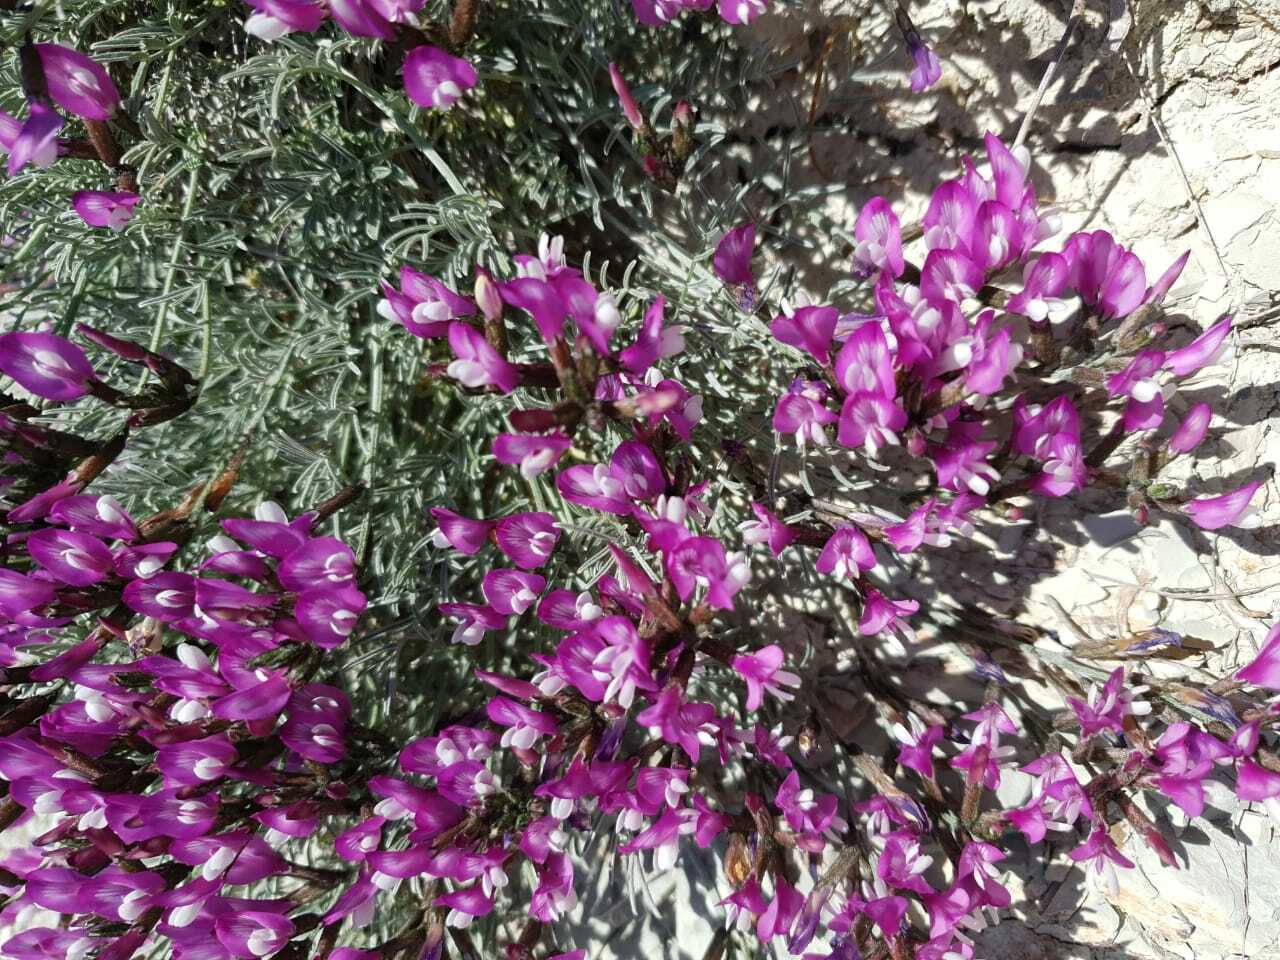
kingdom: Plantae
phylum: Tracheophyta
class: Magnoliopsida
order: Fabales
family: Fabaceae
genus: Astragalus
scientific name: Astragalus subuliformis
